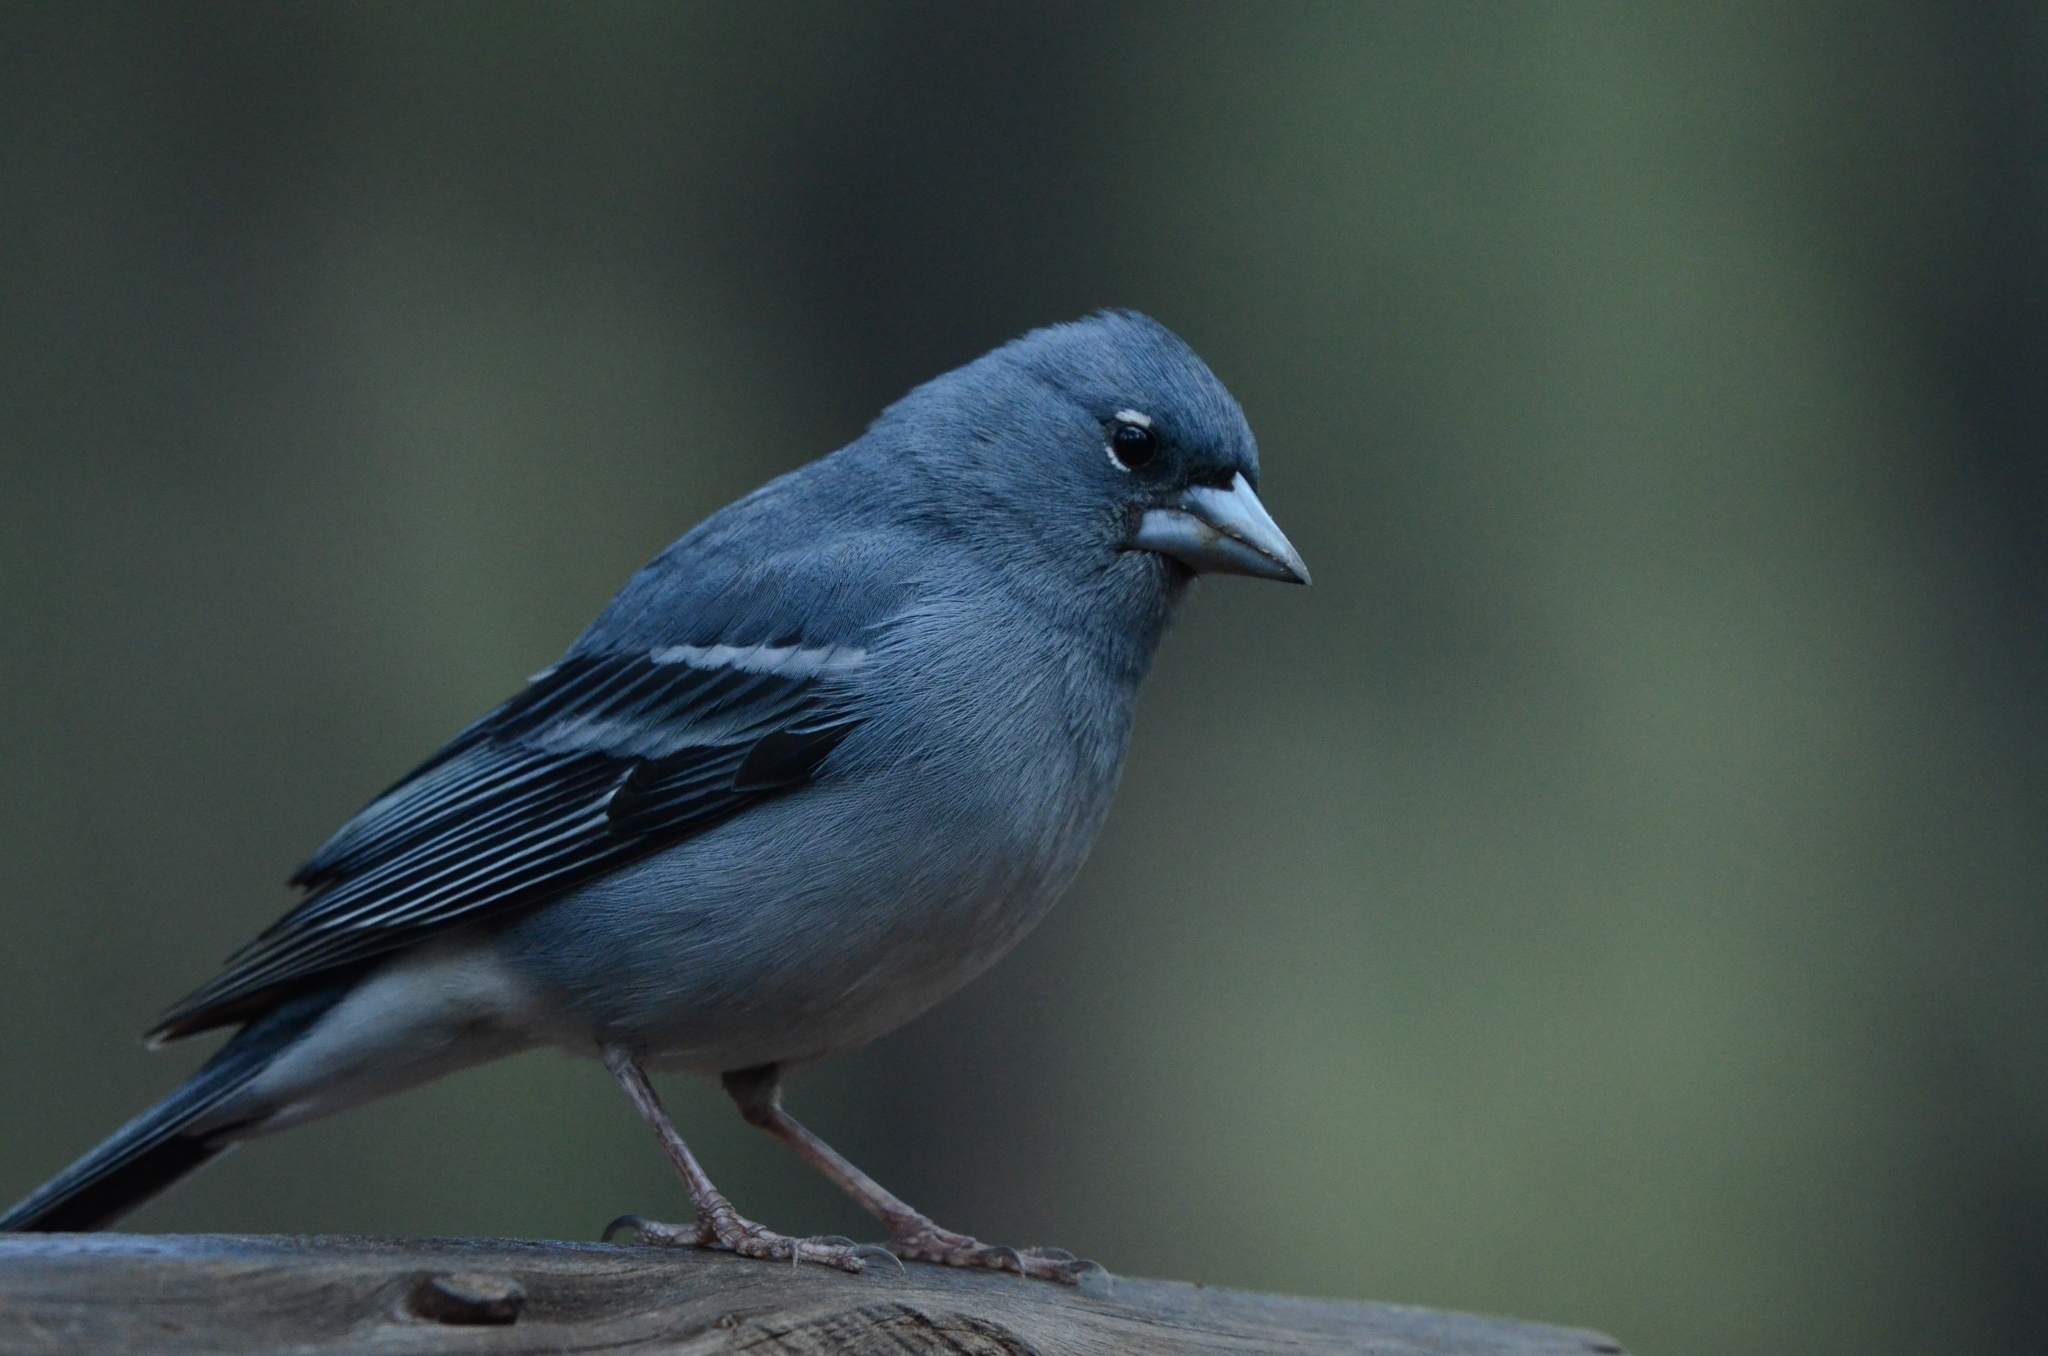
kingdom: Animalia
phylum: Chordata
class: Aves
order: Passeriformes
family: Fringillidae
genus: Fringilla
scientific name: Fringilla teydea
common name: Blue chaffinch
